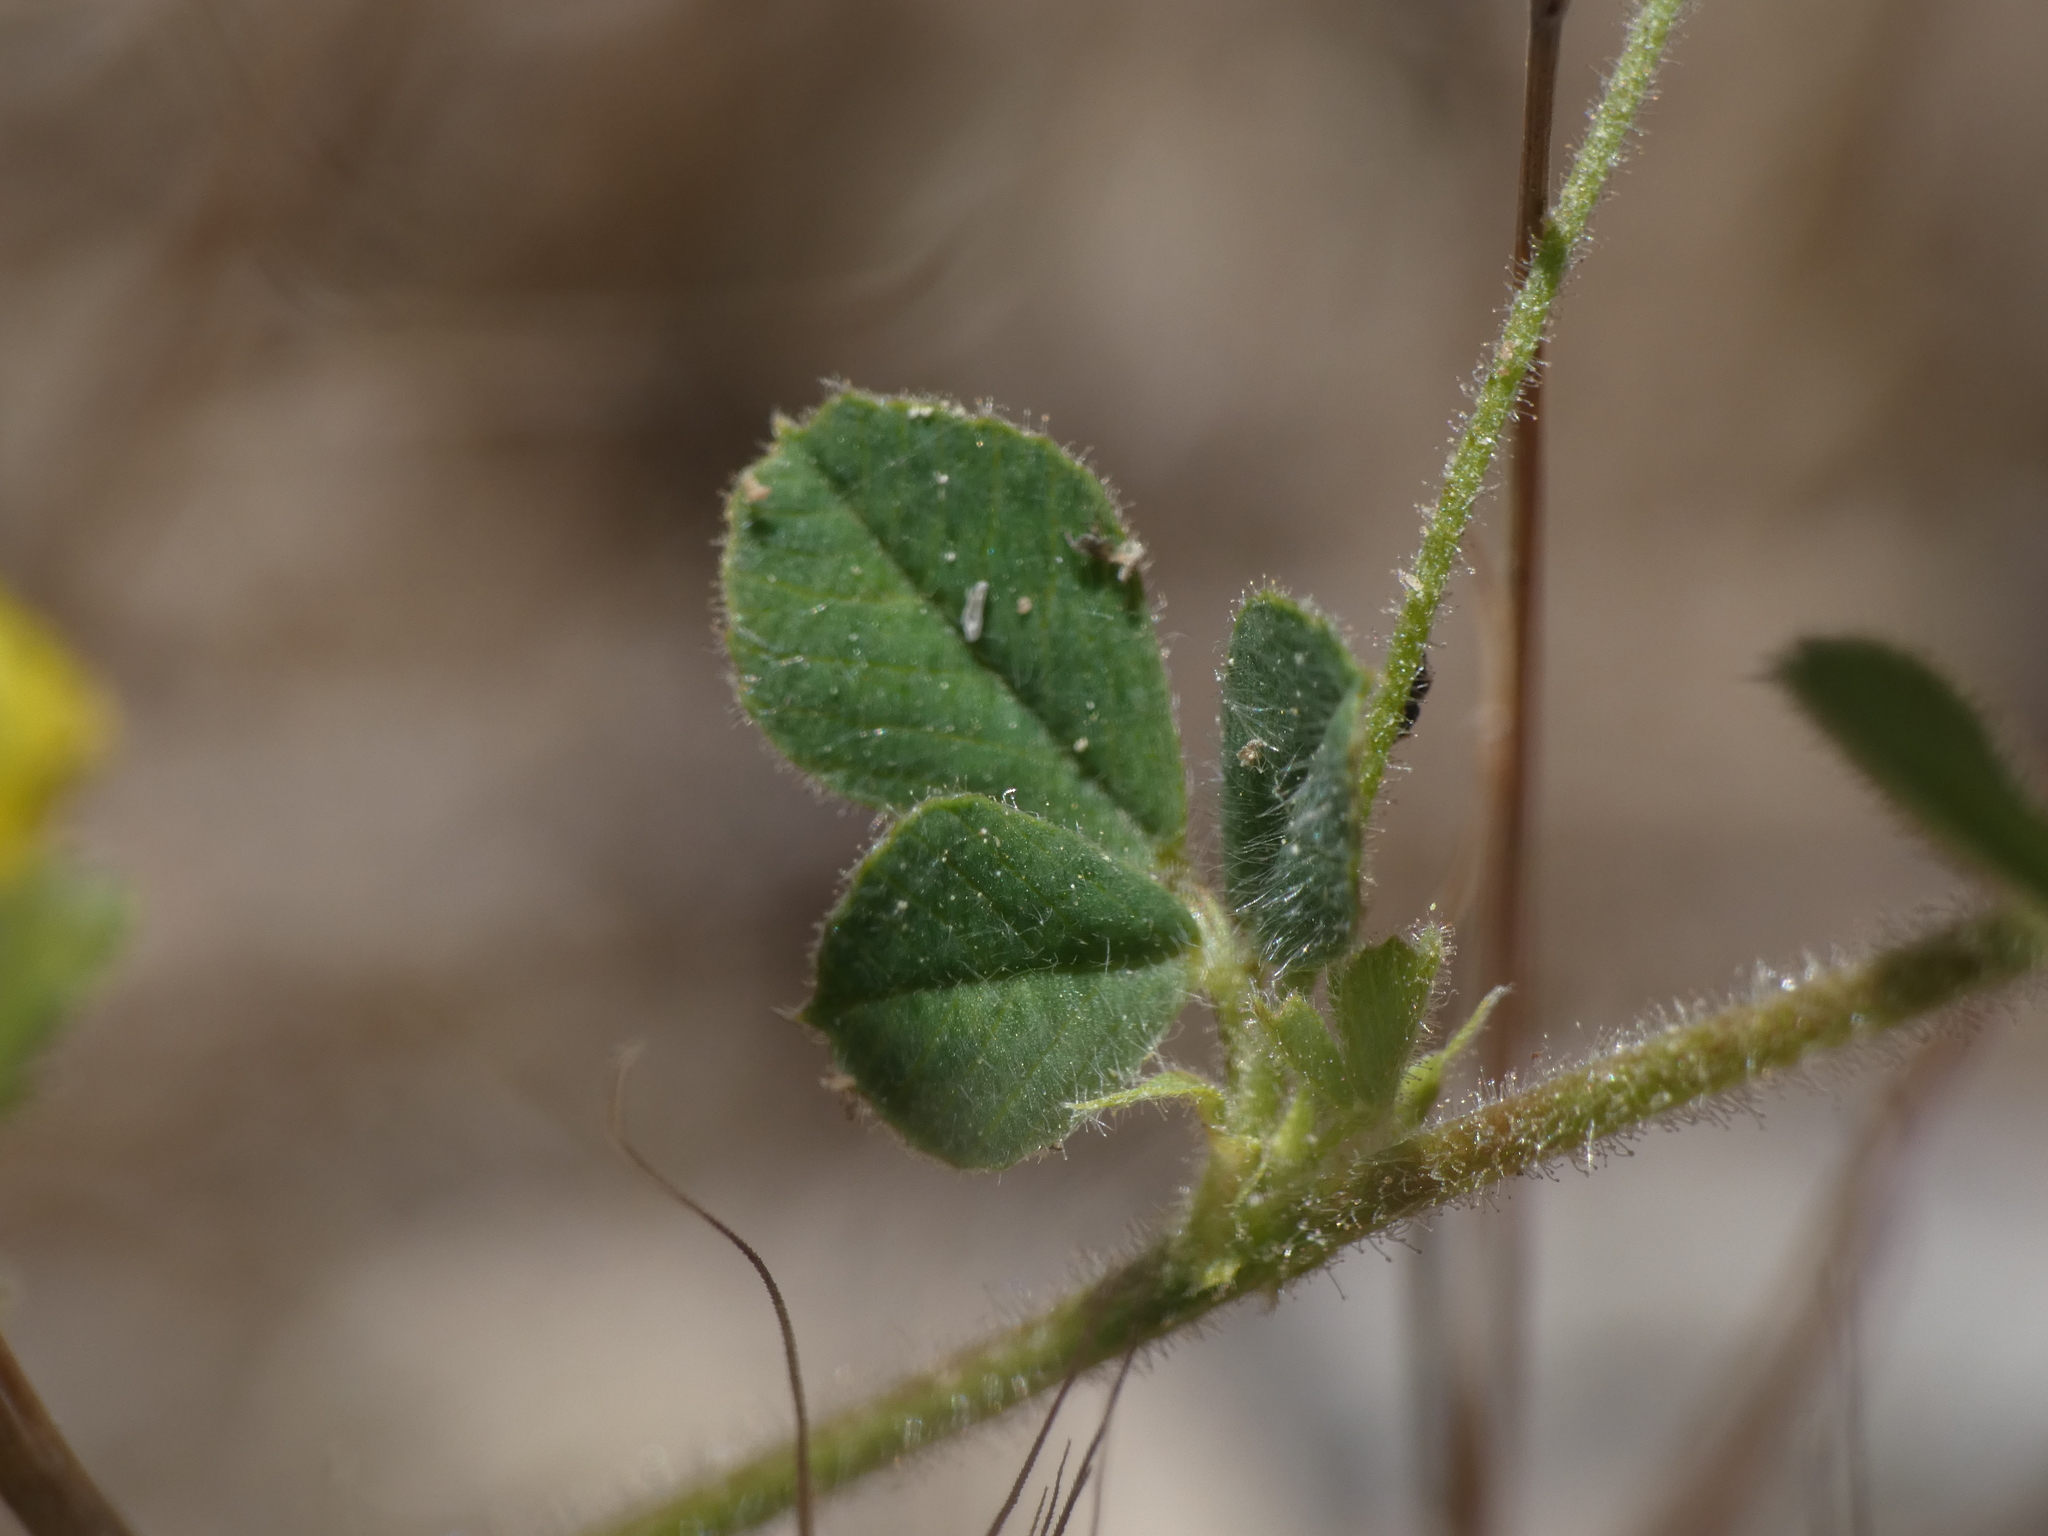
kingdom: Plantae
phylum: Tracheophyta
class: Magnoliopsida
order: Fabales
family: Fabaceae
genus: Medicago
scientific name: Medicago lupulina
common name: Black medick
